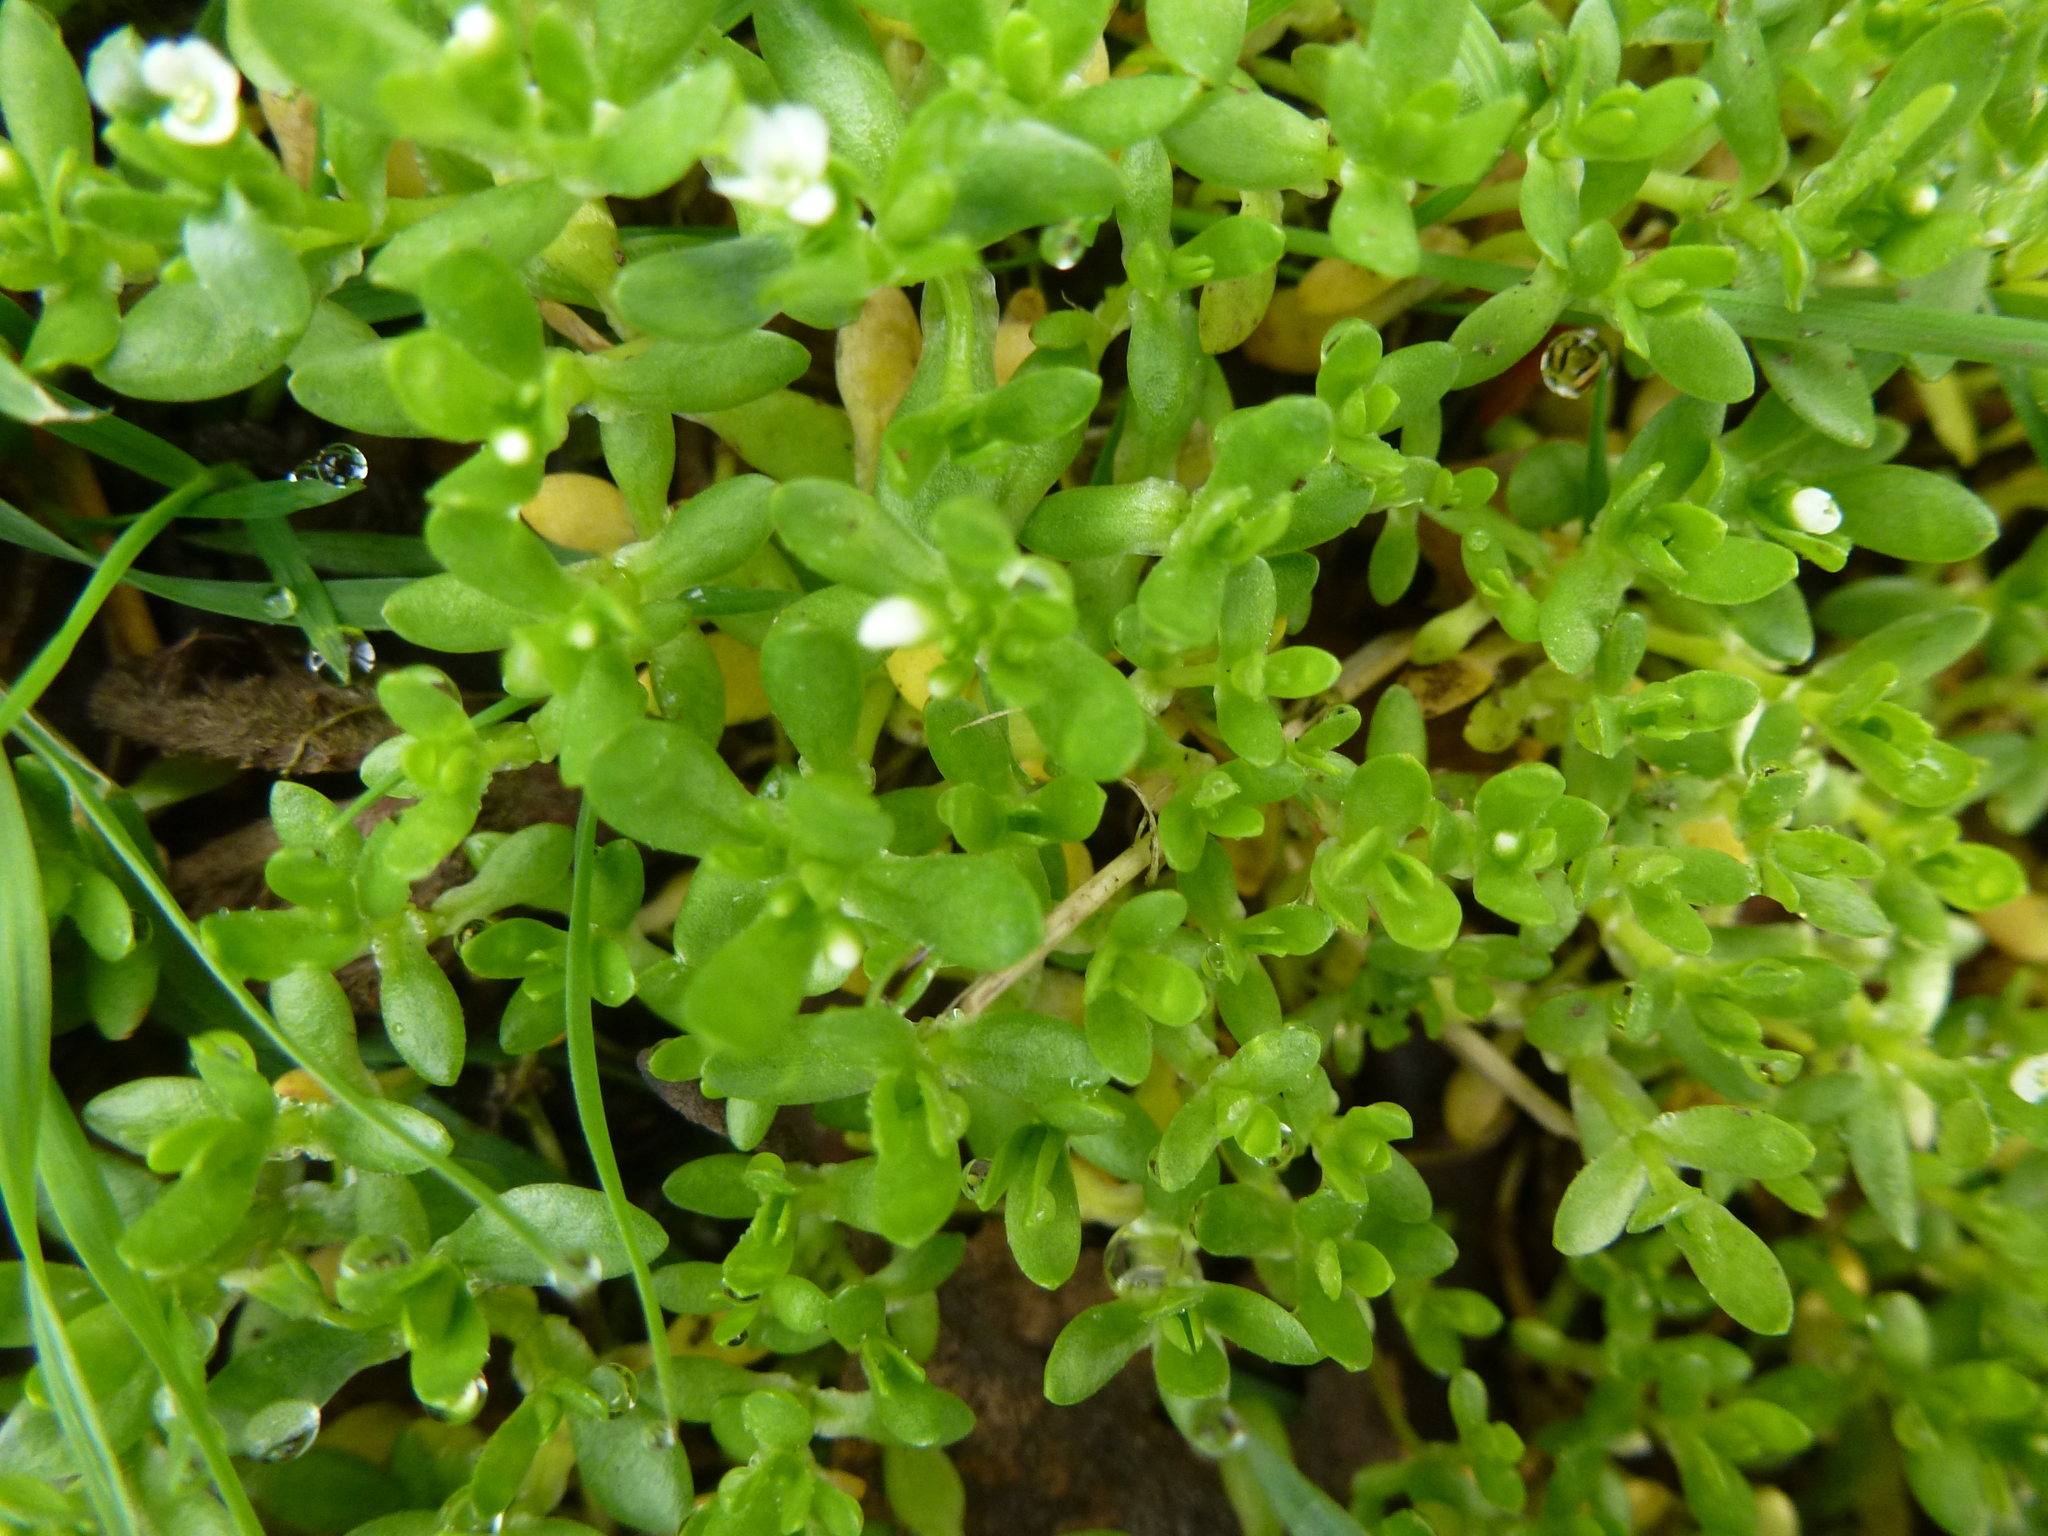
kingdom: Plantae
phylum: Tracheophyta
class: Magnoliopsida
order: Caryophyllales
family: Montiaceae
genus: Montia
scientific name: Montia fontana
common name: Blinks
